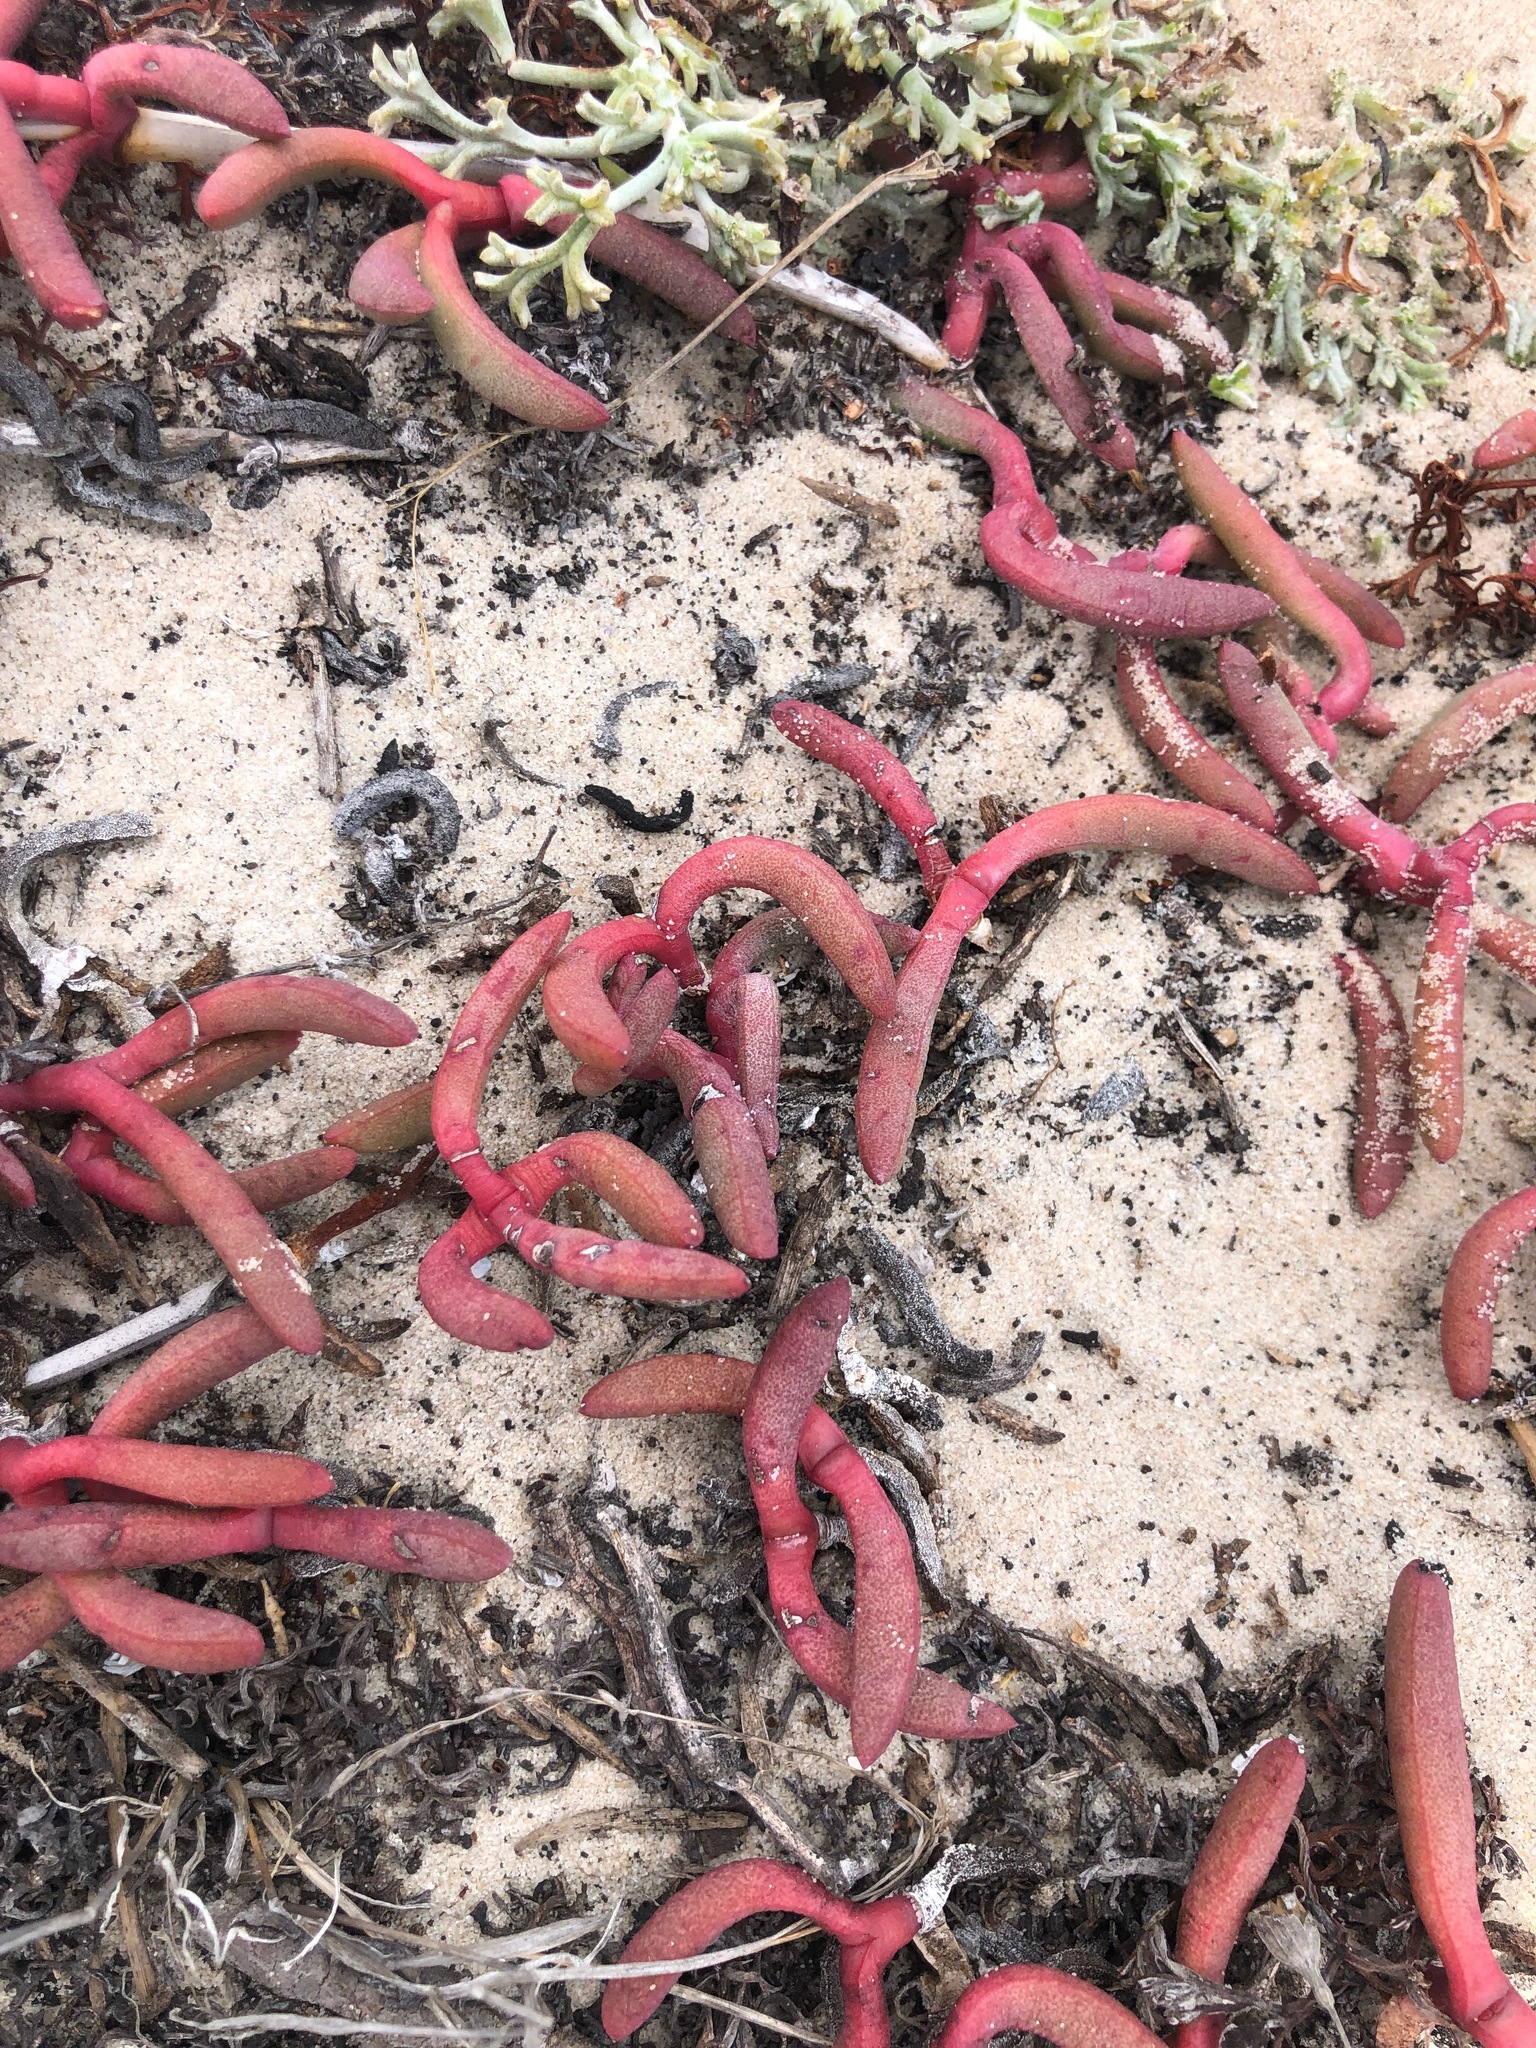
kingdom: Plantae
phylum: Tracheophyta
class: Magnoliopsida
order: Caryophyllales
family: Aizoaceae
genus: Jordaaniella
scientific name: Jordaaniella dubia
